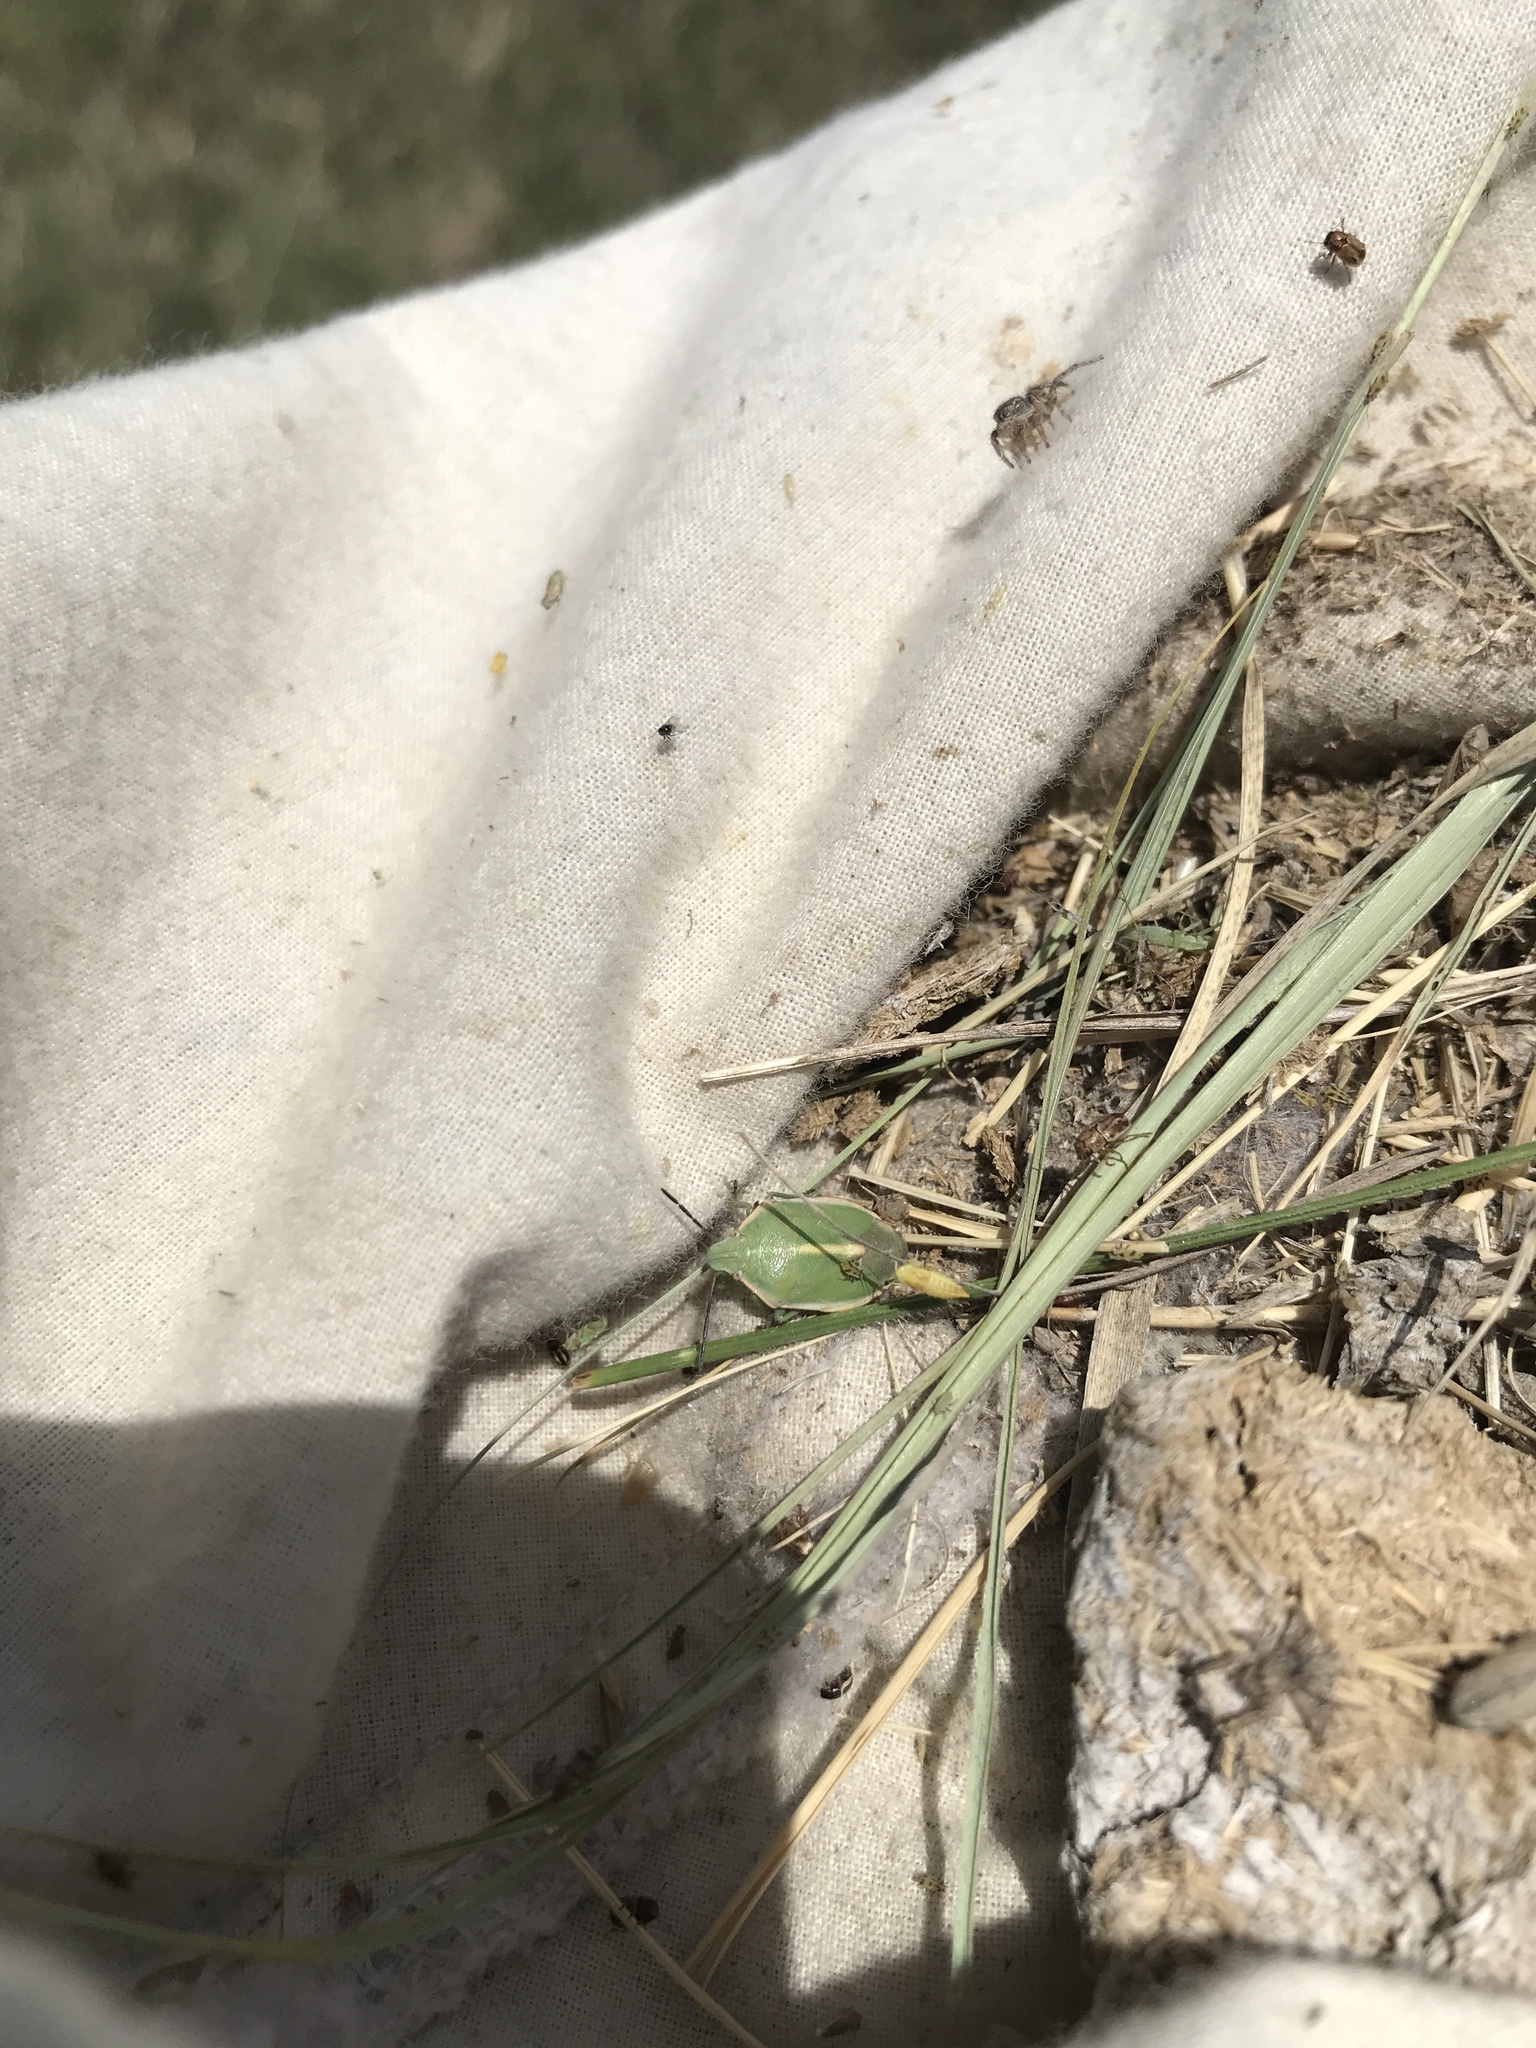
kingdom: Animalia
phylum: Arthropoda
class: Insecta
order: Hemiptera
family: Pentatomidae
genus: Chlorochroa
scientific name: Chlorochroa faceta
